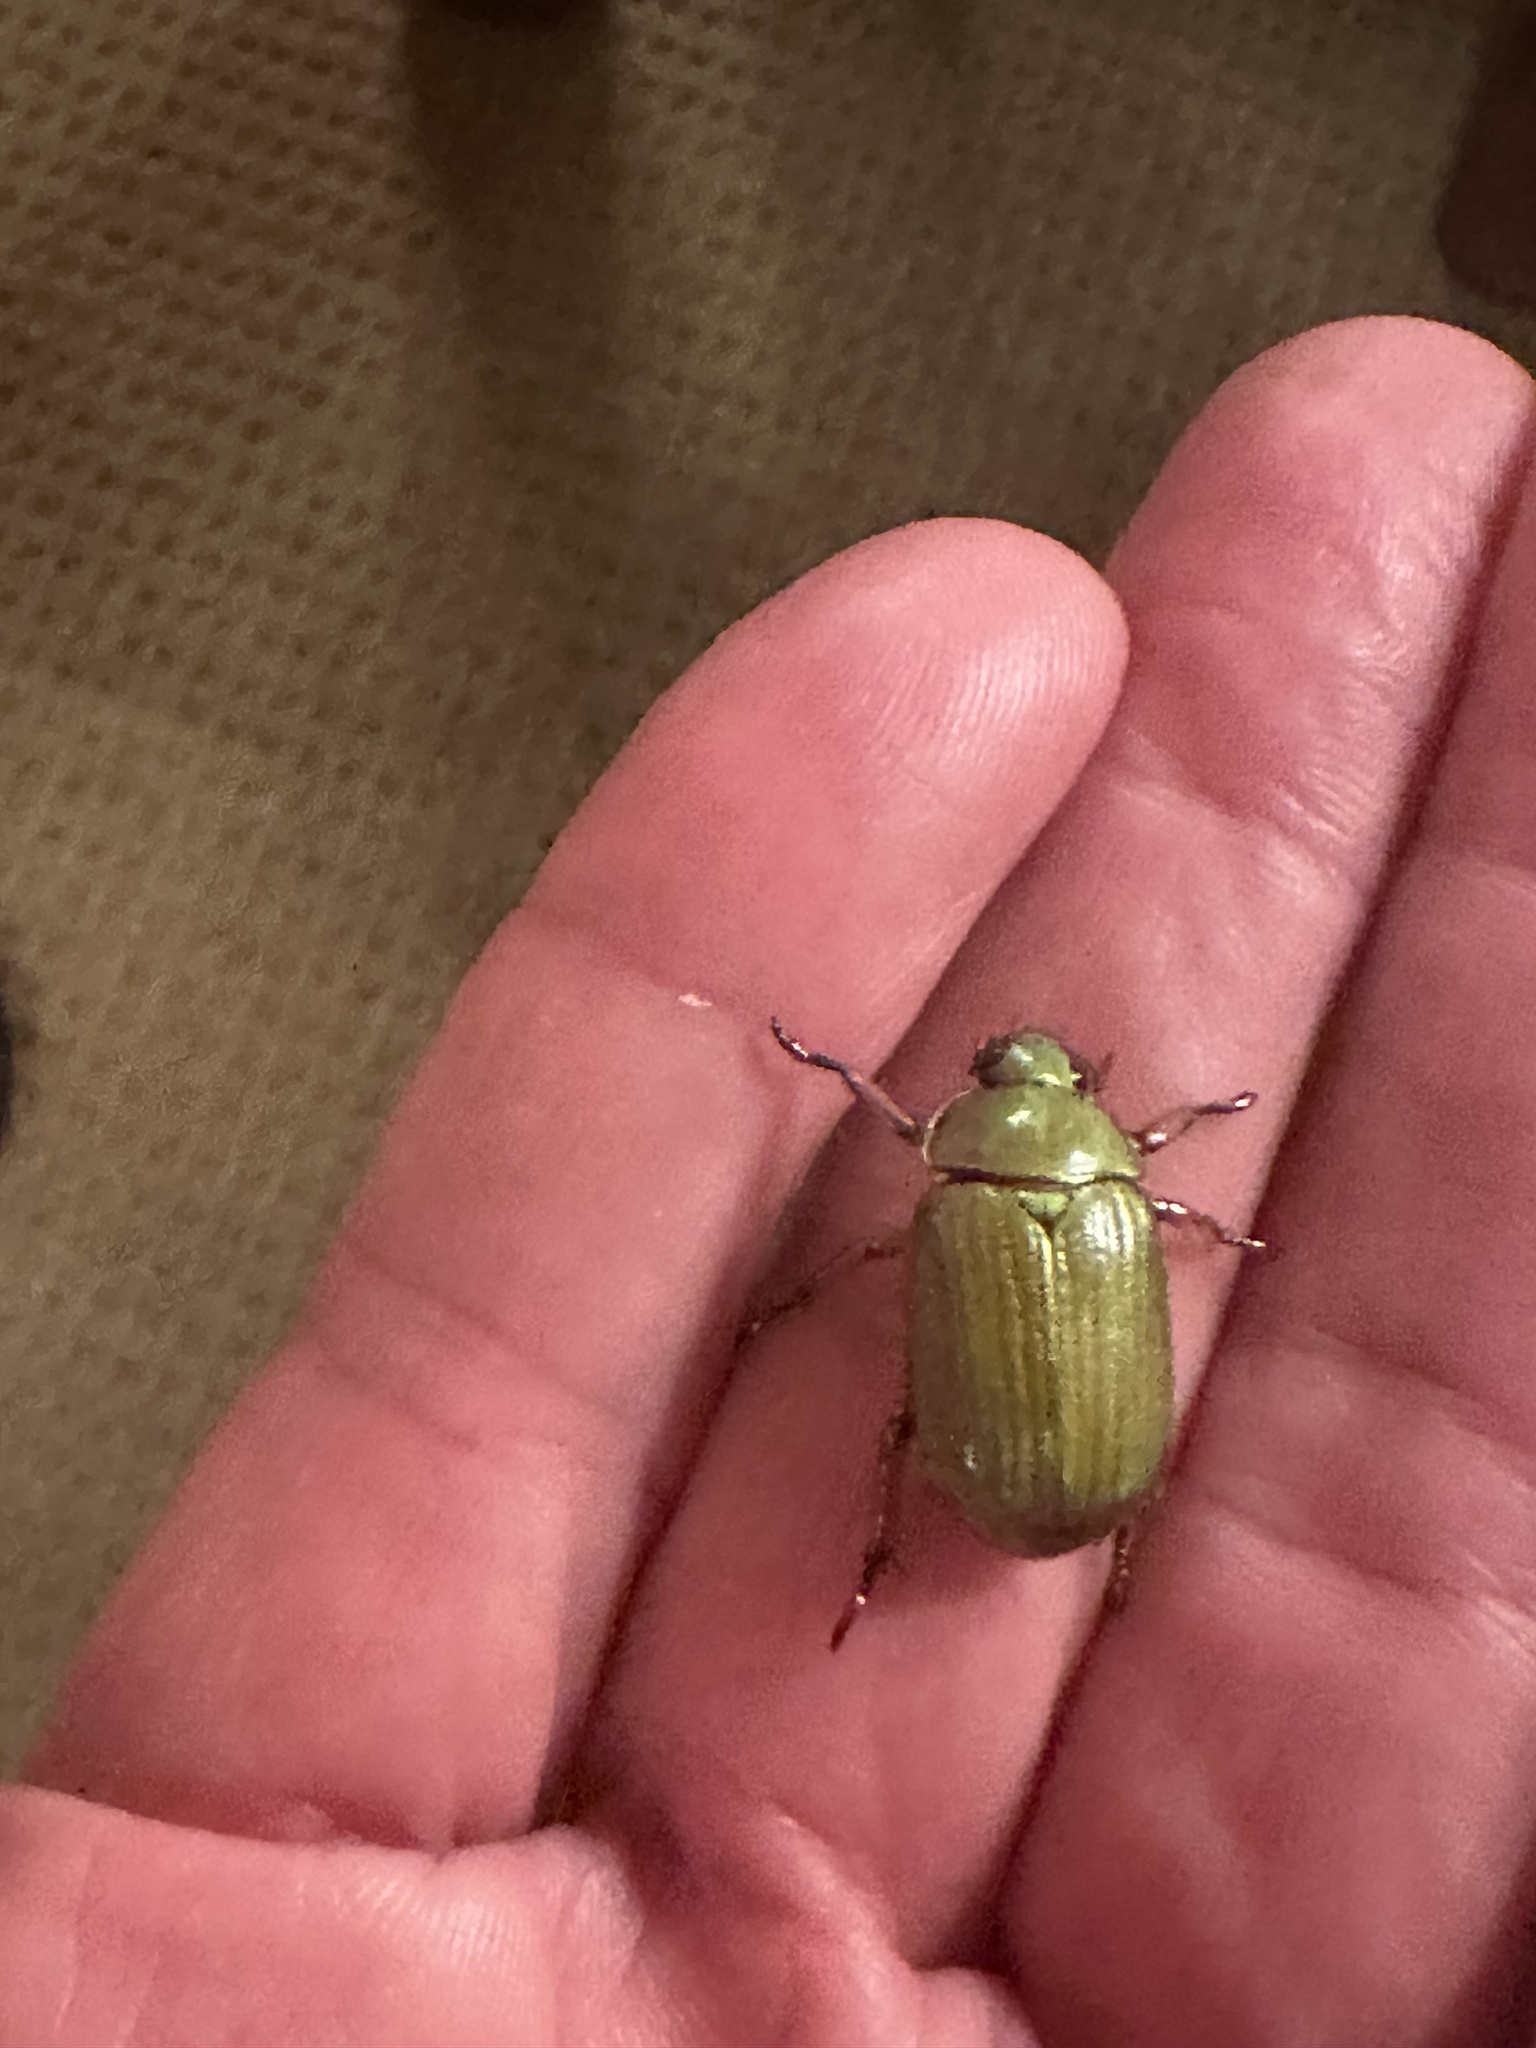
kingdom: Animalia
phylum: Arthropoda
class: Insecta
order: Coleoptera
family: Scarabaeidae
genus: Chrysina
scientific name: Chrysina lecontei
